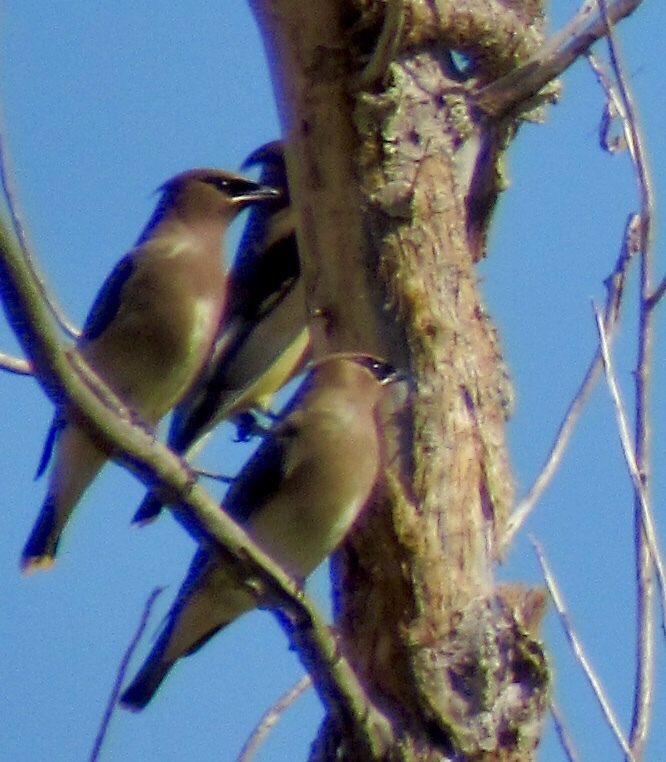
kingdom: Animalia
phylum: Chordata
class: Aves
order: Passeriformes
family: Bombycillidae
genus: Bombycilla
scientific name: Bombycilla cedrorum
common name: Cedar waxwing
